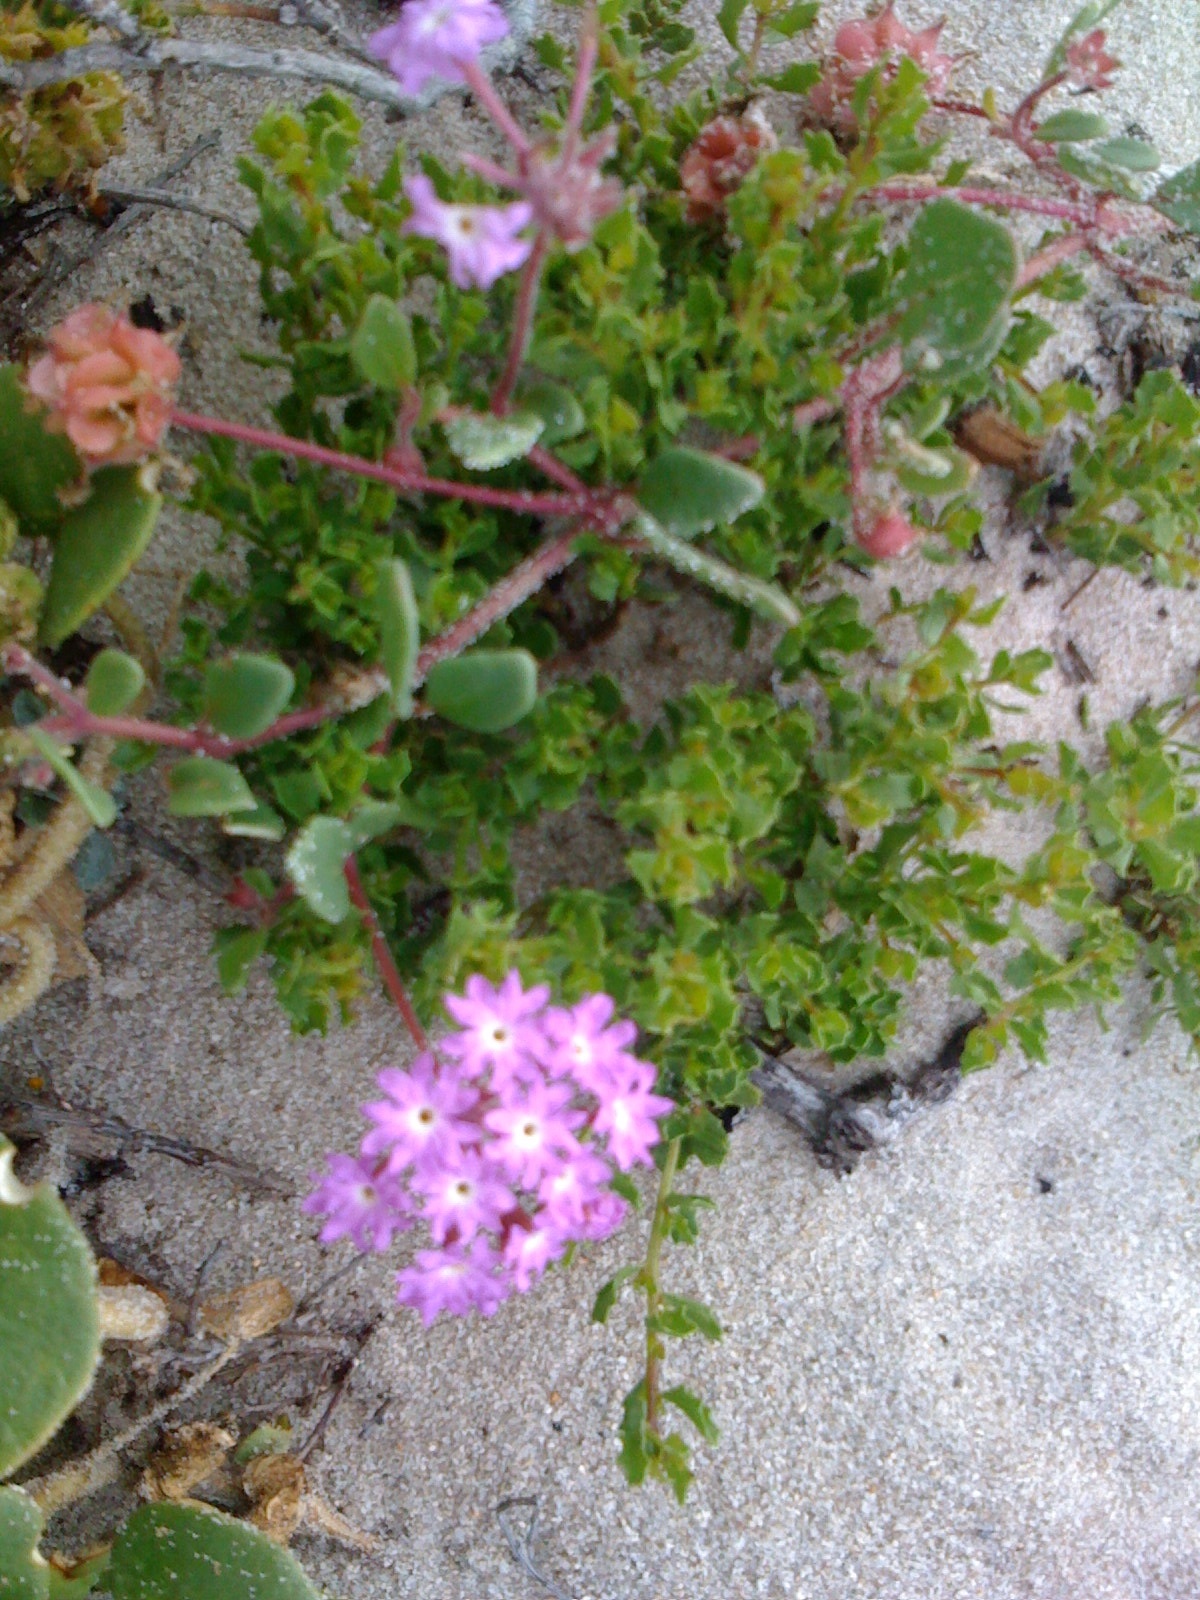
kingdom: Plantae
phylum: Tracheophyta
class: Magnoliopsida
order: Caryophyllales
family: Nyctaginaceae
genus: Abronia
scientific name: Abronia umbellata
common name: Sand-verbena
